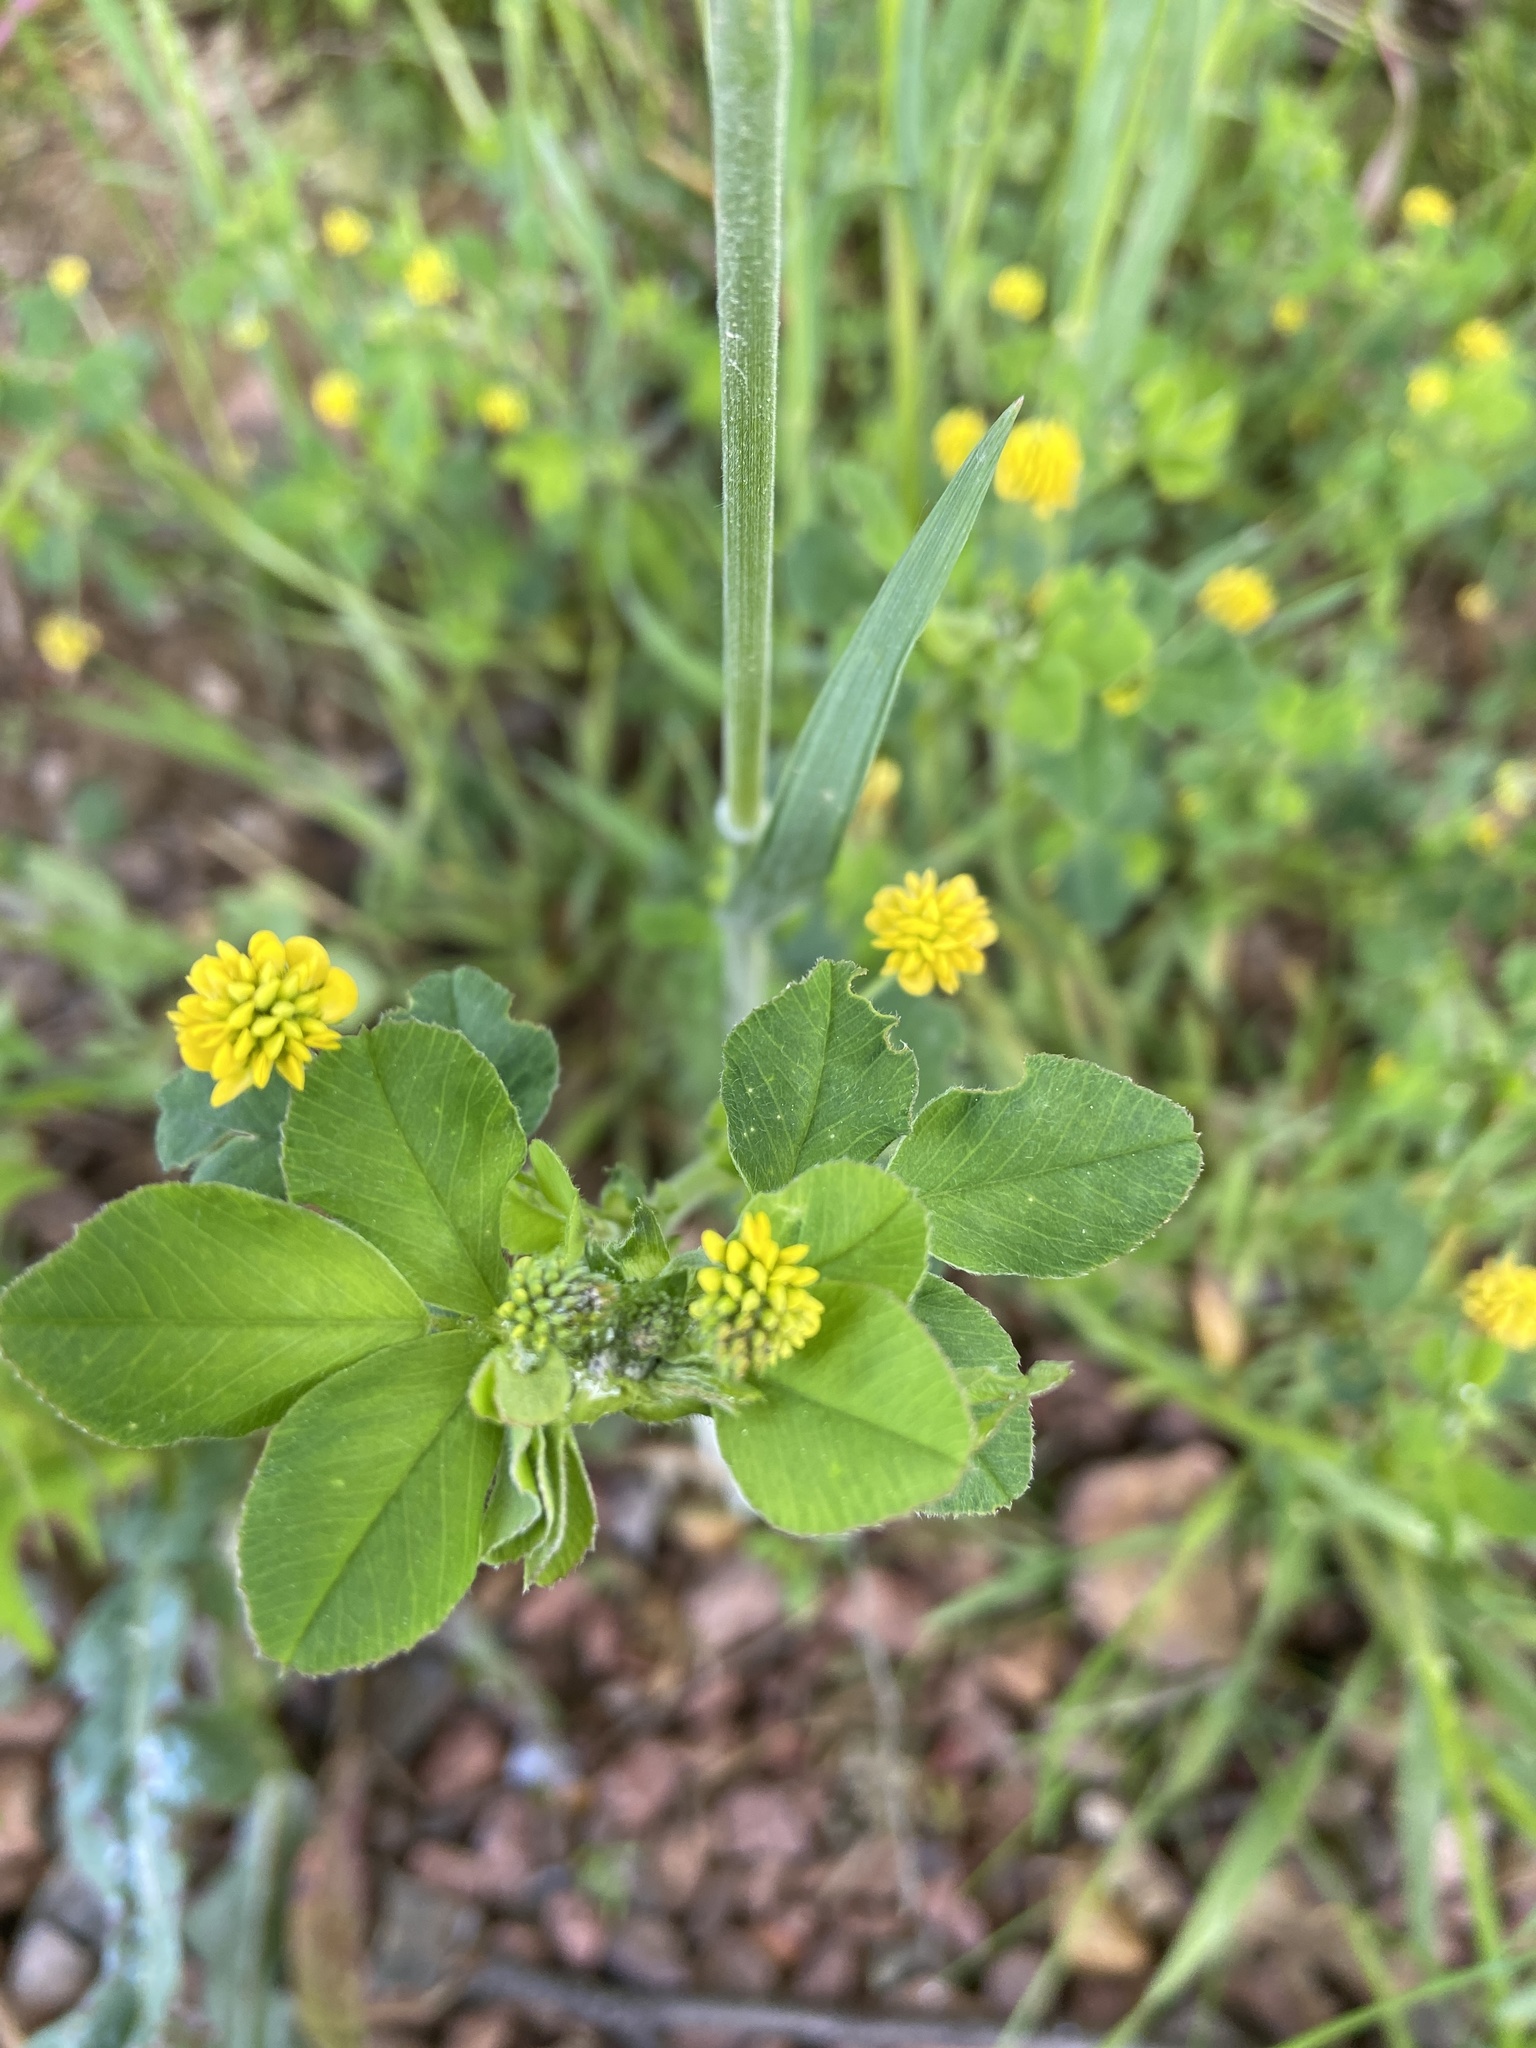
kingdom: Plantae
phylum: Tracheophyta
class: Magnoliopsida
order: Fabales
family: Fabaceae
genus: Medicago
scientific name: Medicago lupulina
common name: Black medick
